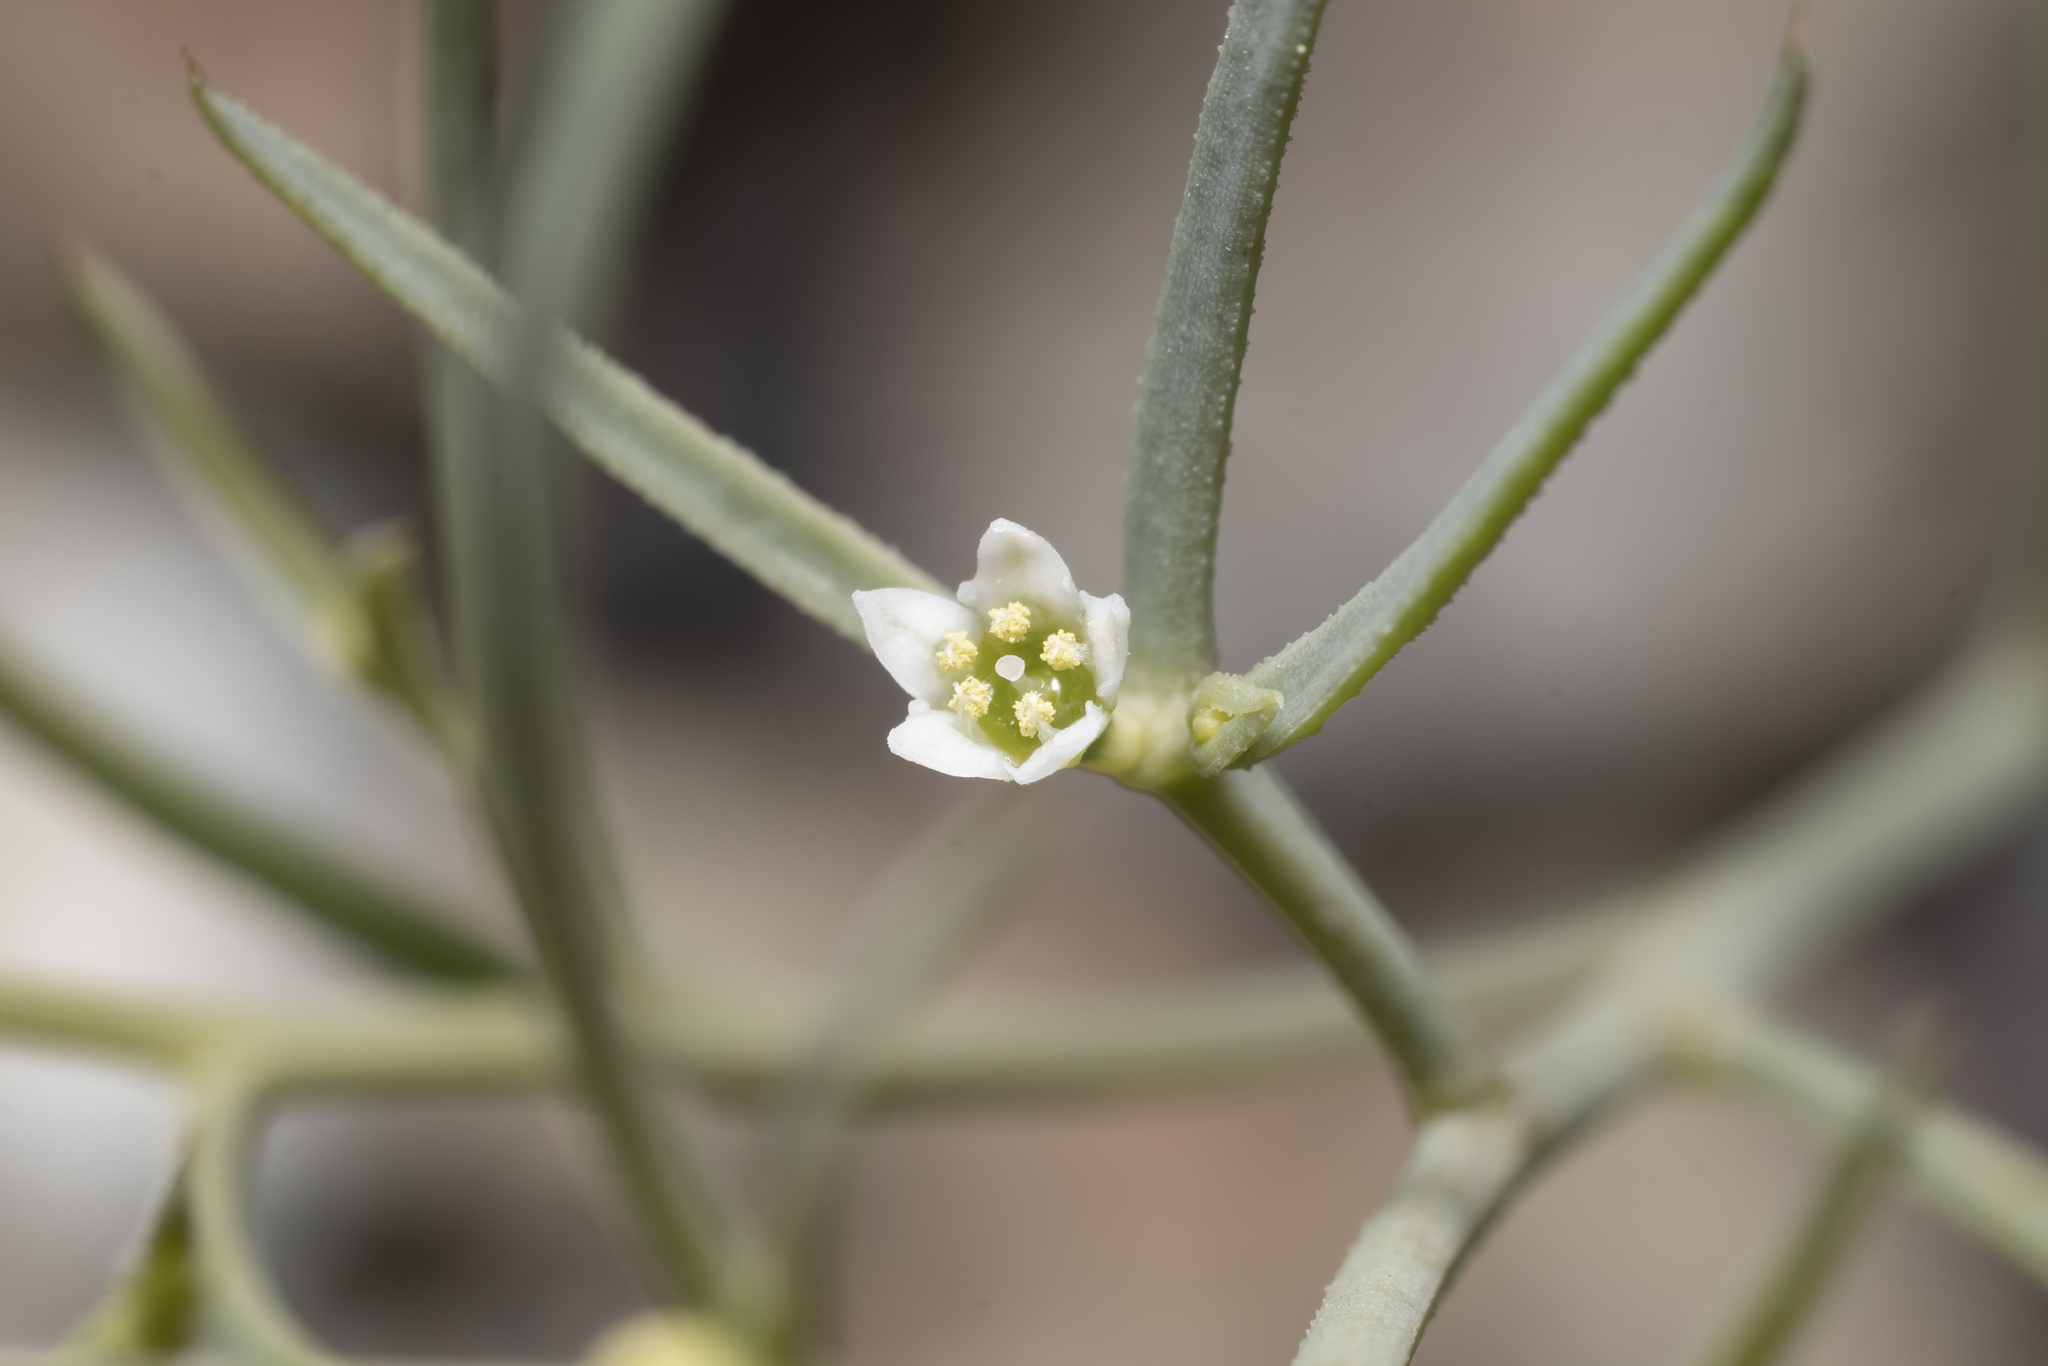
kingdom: Plantae
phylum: Tracheophyta
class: Magnoliopsida
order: Santalales
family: Thesiaceae
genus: Thesium
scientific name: Thesium bergeri
